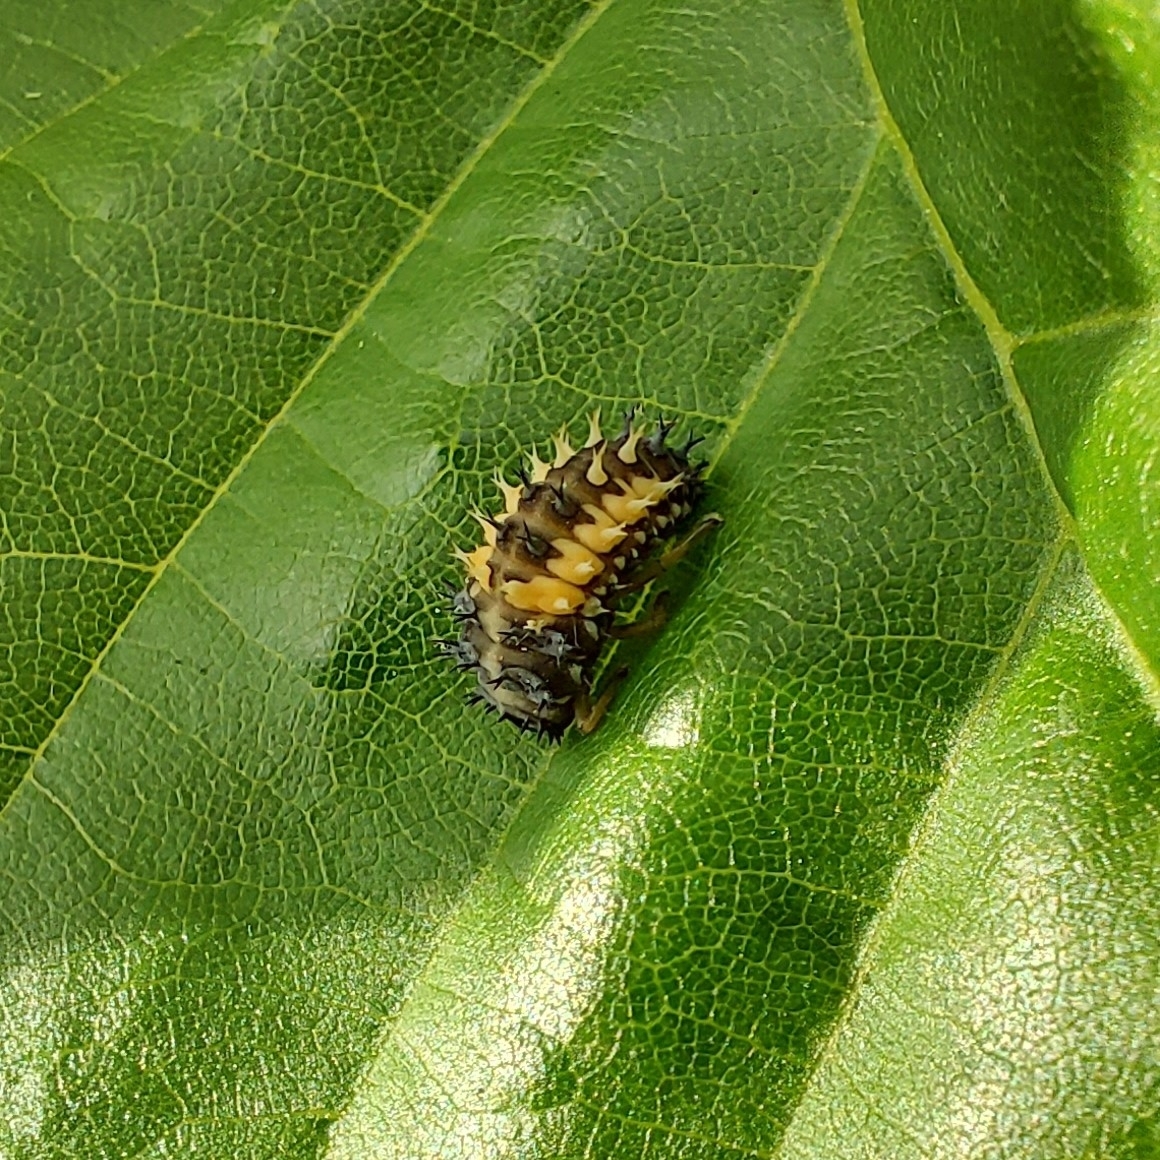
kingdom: Animalia
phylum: Arthropoda
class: Insecta
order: Coleoptera
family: Coccinellidae
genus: Harmonia
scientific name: Harmonia axyridis
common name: Harlequin ladybird
